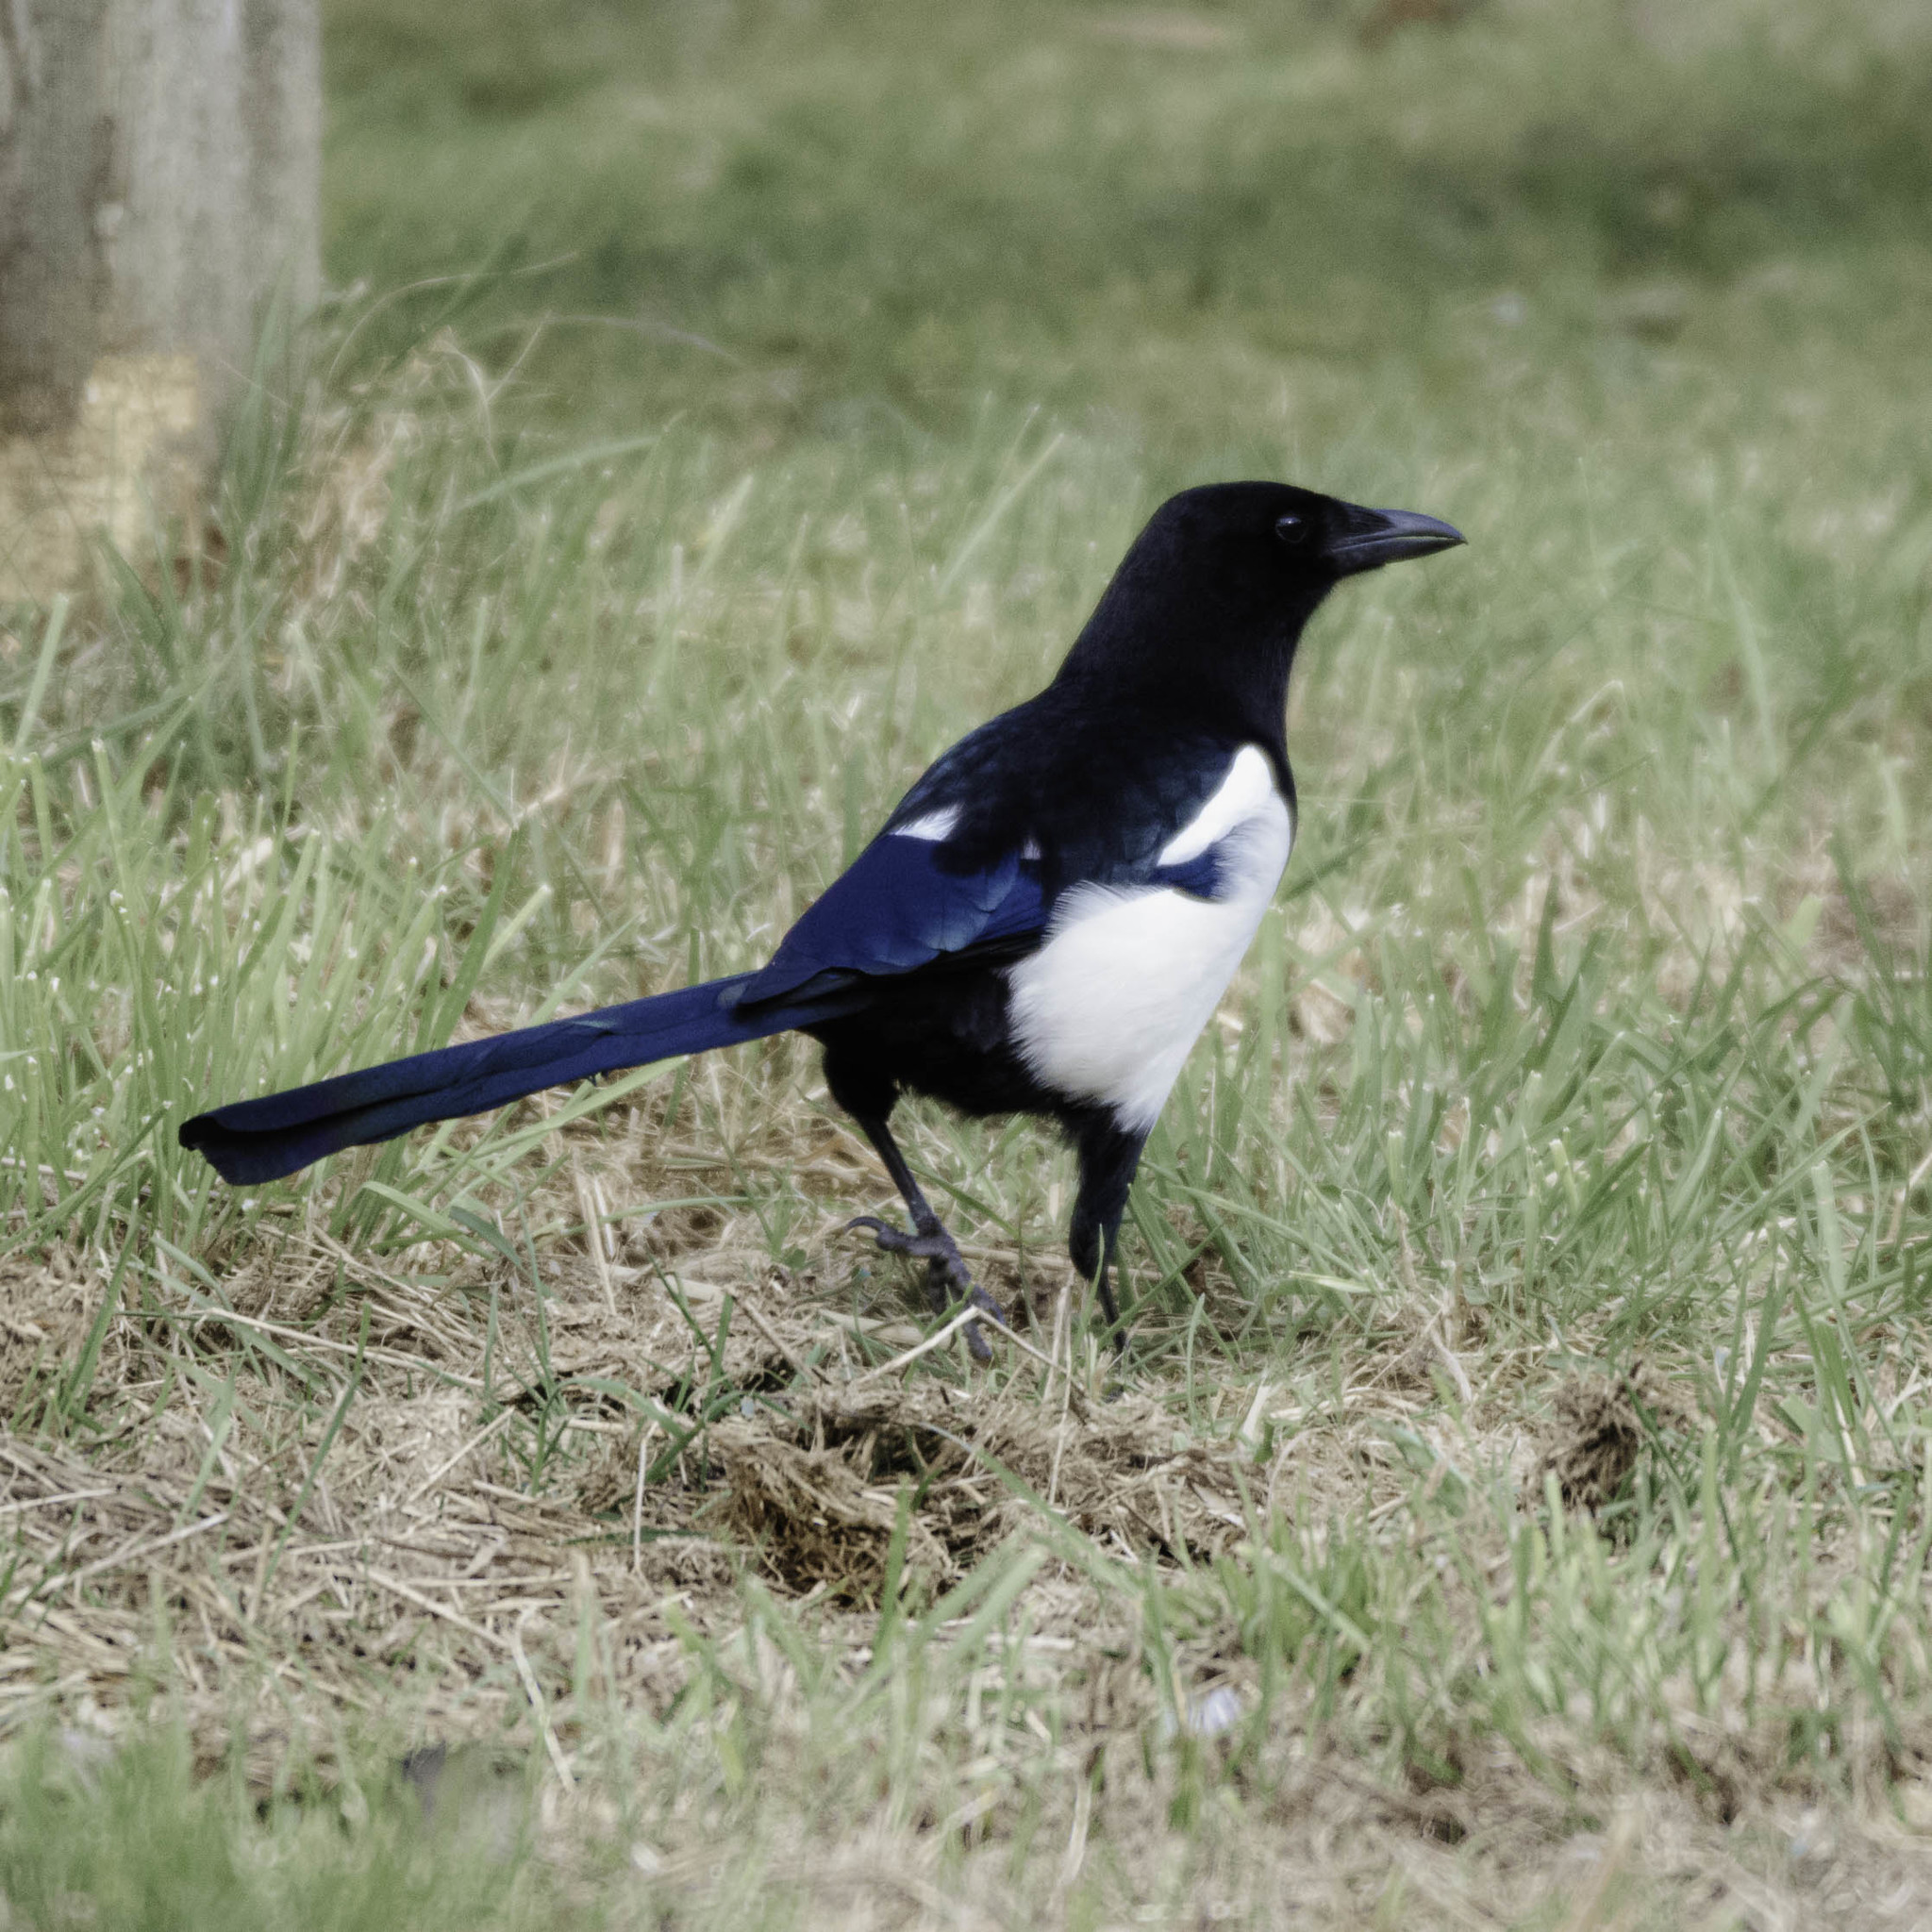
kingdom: Animalia
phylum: Chordata
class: Aves
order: Passeriformes
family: Corvidae
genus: Pica
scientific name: Pica pica
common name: Eurasian magpie
